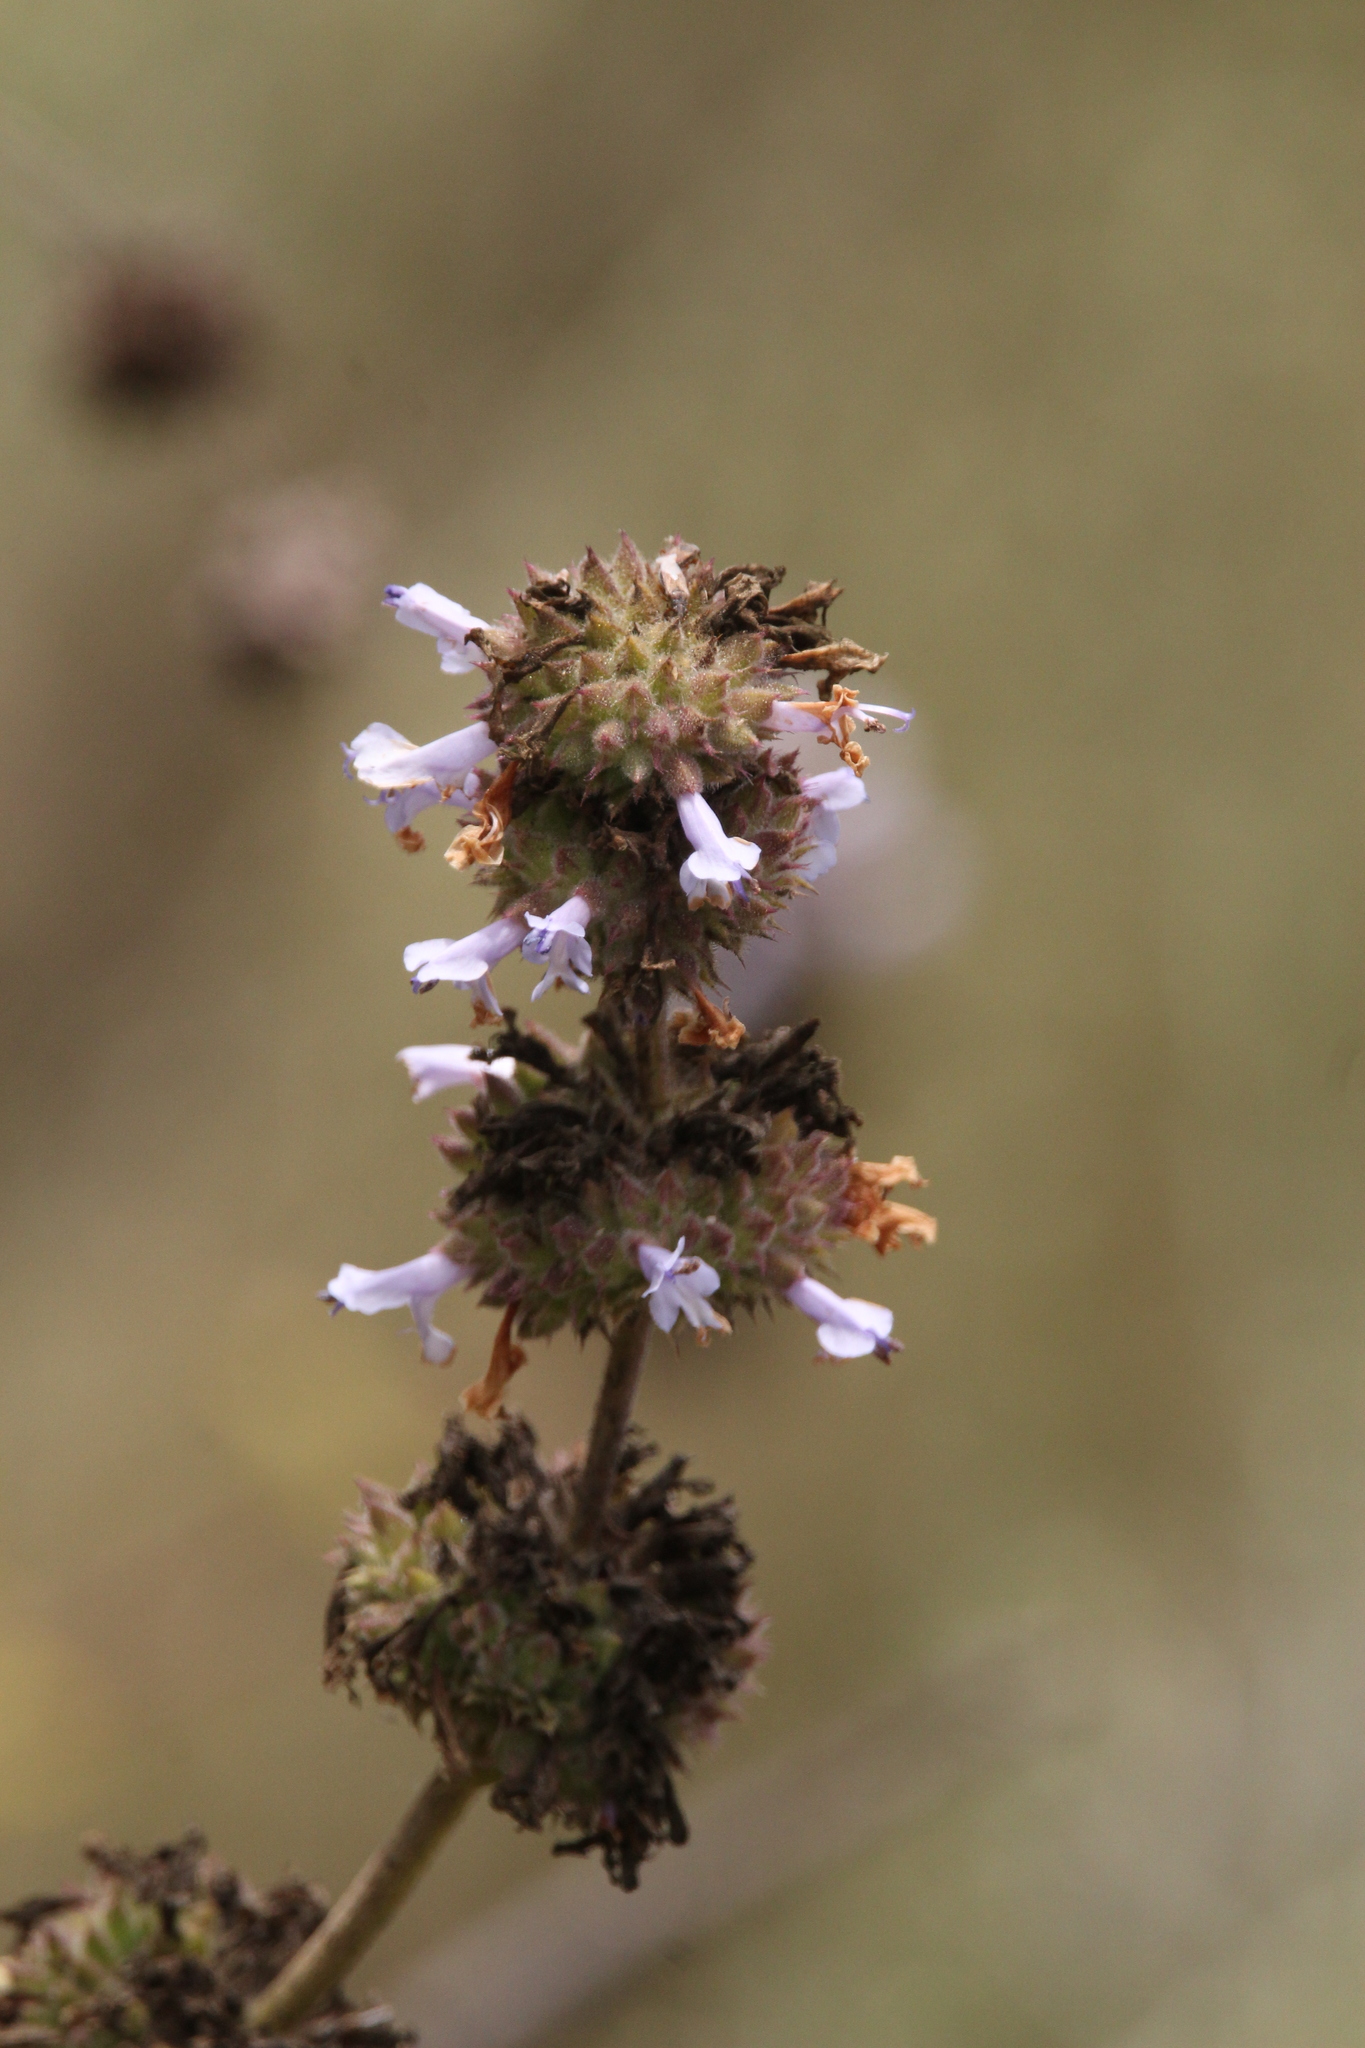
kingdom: Plantae
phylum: Tracheophyta
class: Magnoliopsida
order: Lamiales
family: Lamiaceae
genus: Salvia
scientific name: Salvia mellifera
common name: Black sage
